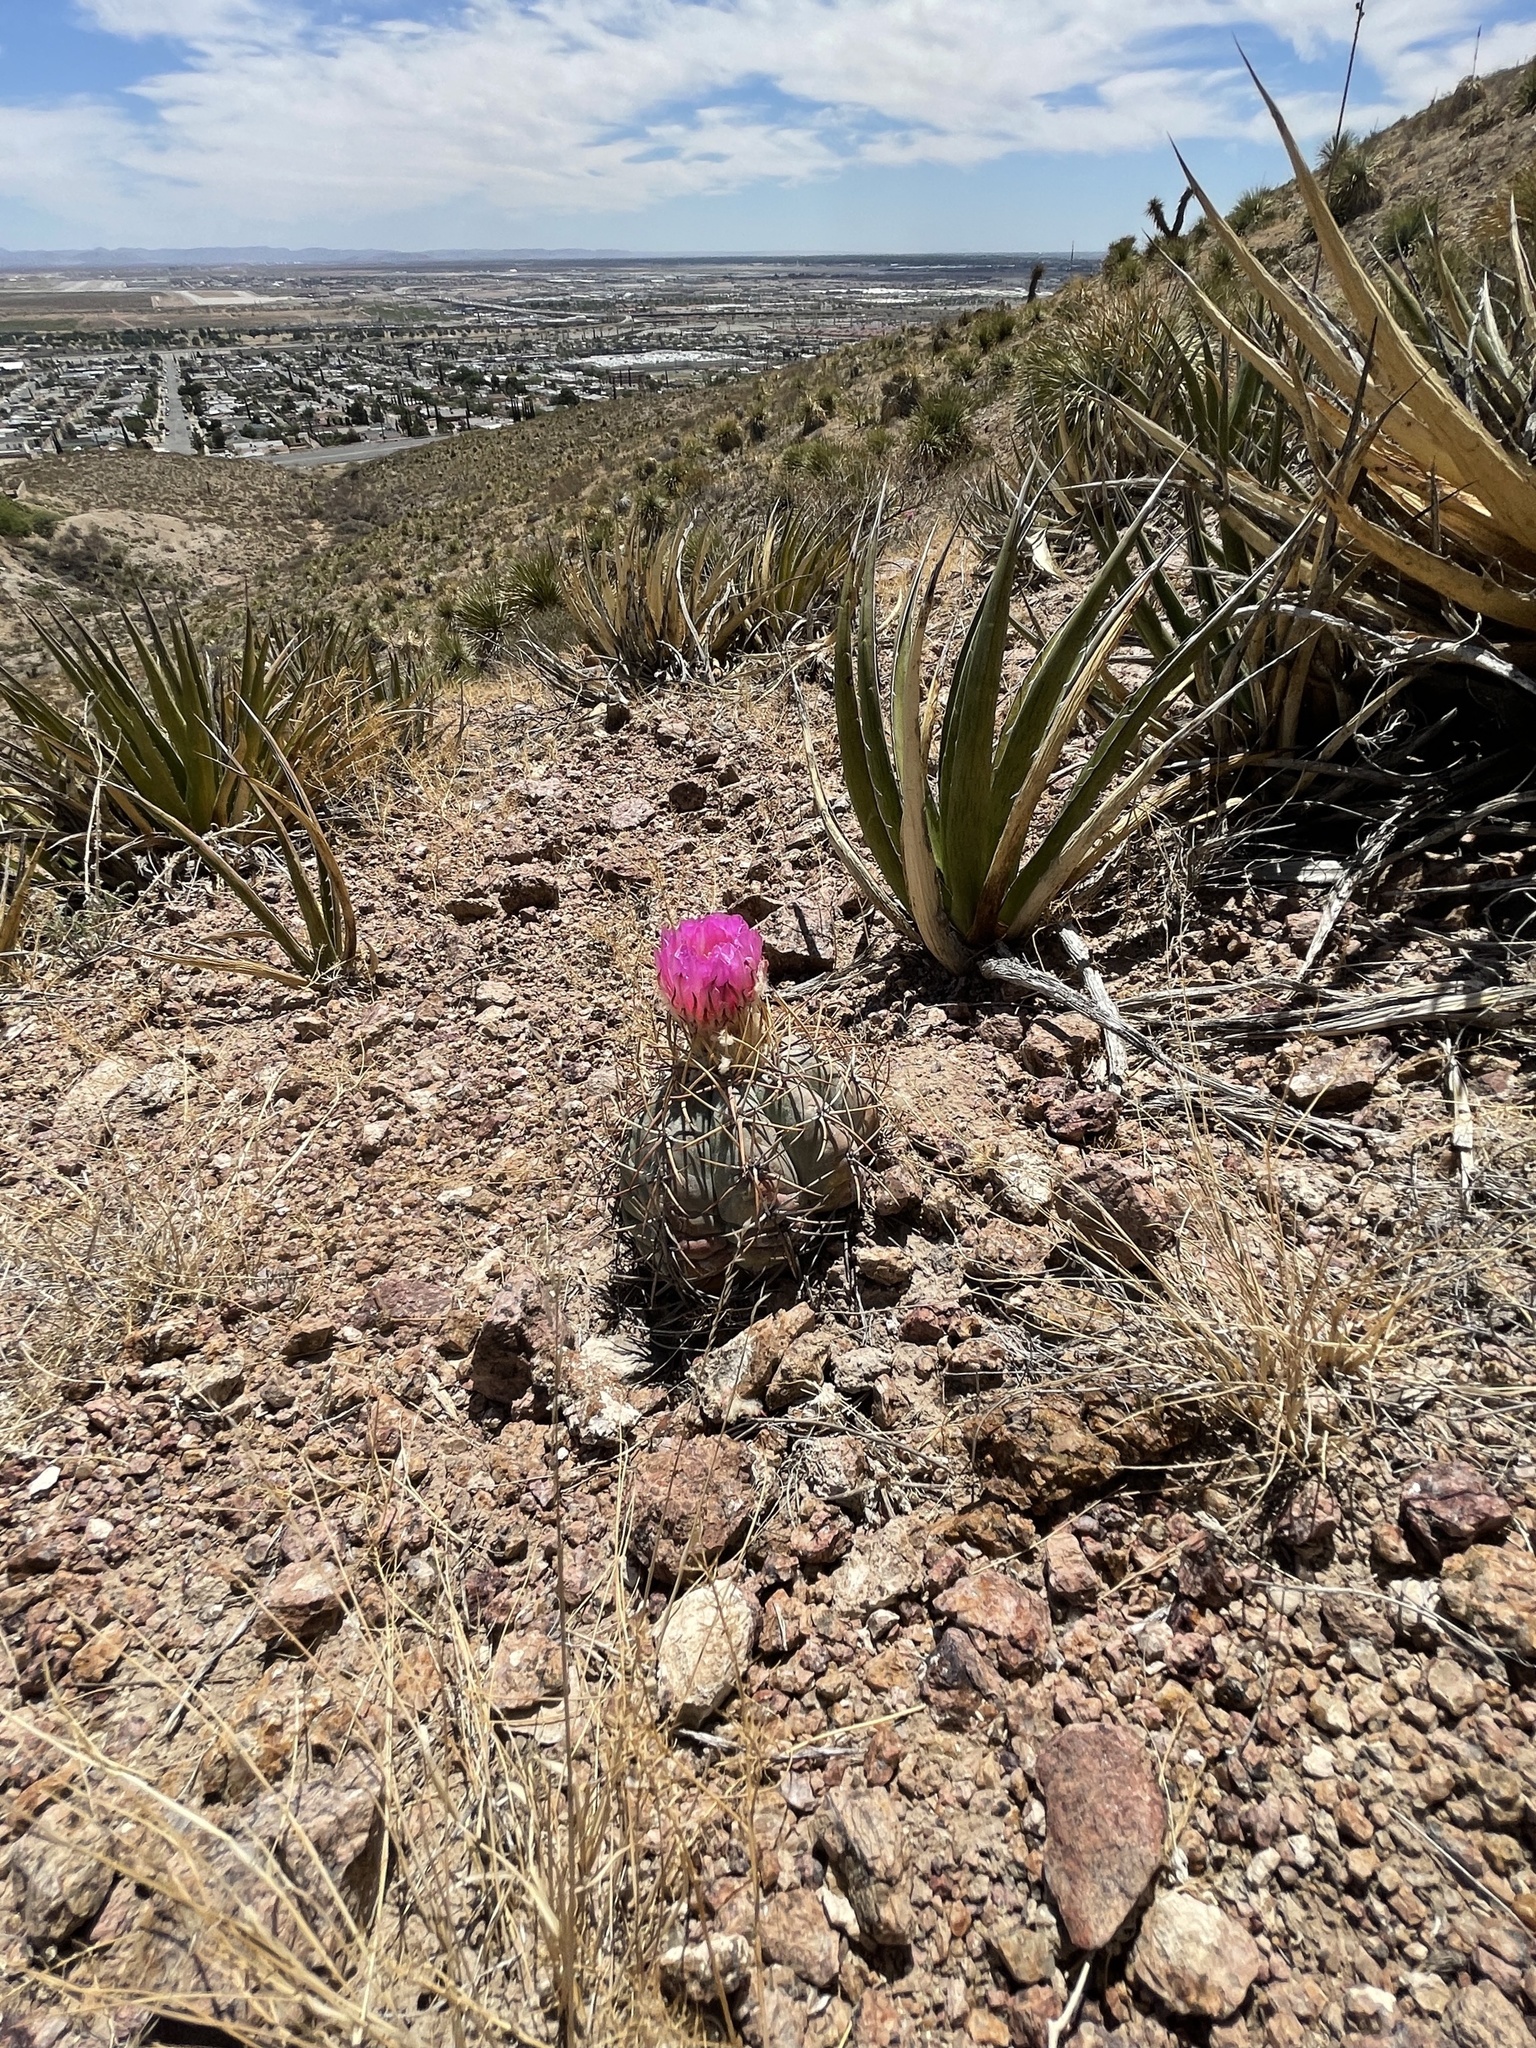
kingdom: Plantae
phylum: Tracheophyta
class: Magnoliopsida
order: Caryophyllales
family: Cactaceae
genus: Echinocactus
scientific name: Echinocactus horizonthalonius
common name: Devilshead
